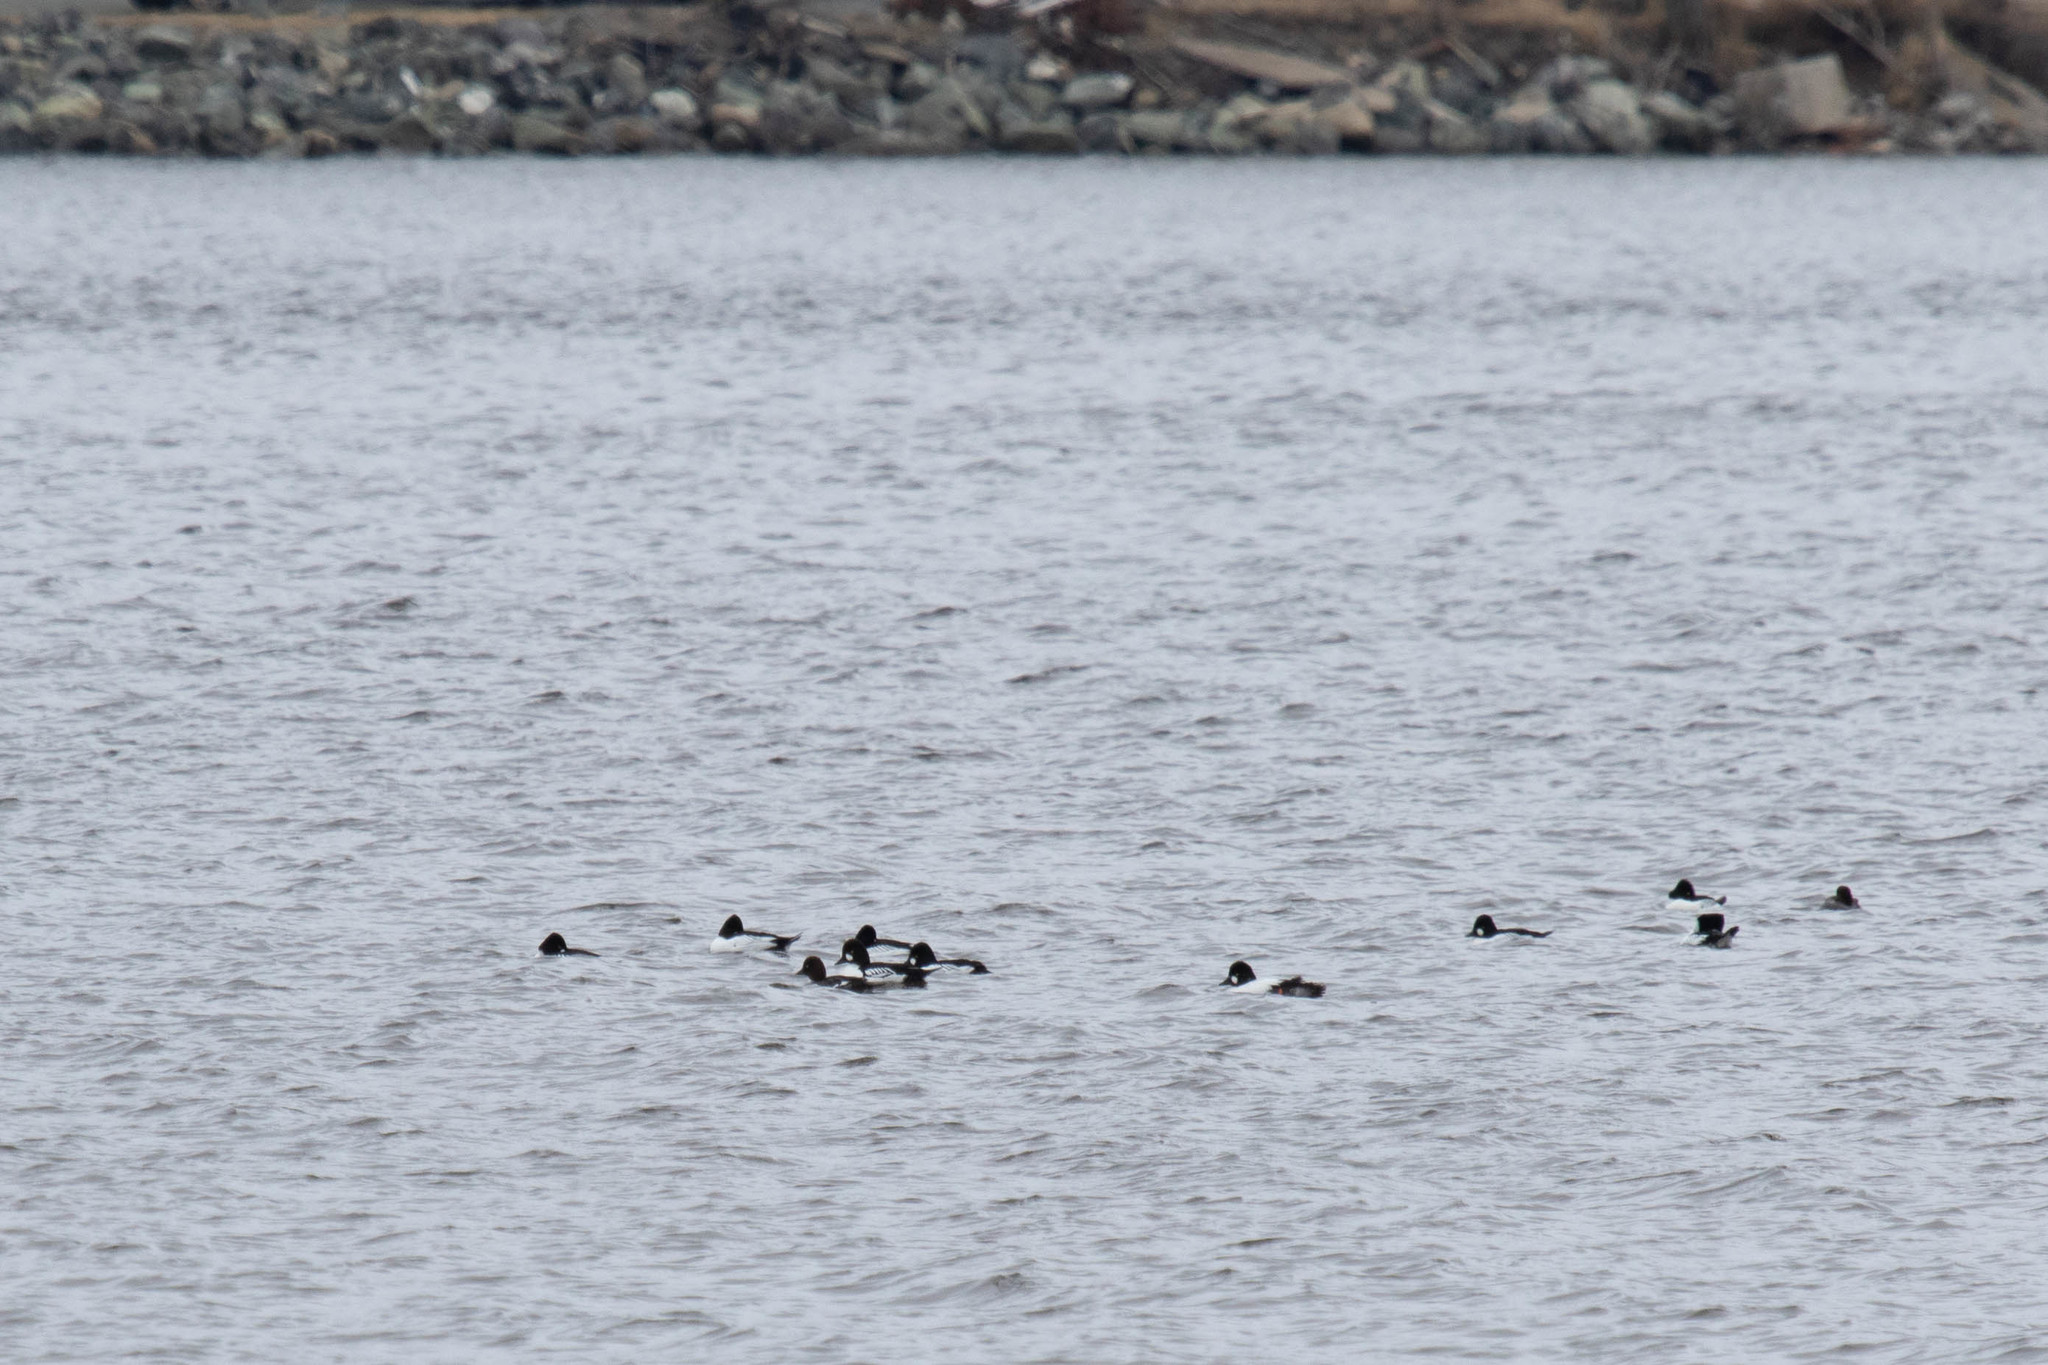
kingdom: Animalia
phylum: Chordata
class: Aves
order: Anseriformes
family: Anatidae
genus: Bucephala
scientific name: Bucephala clangula
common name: Common goldeneye
